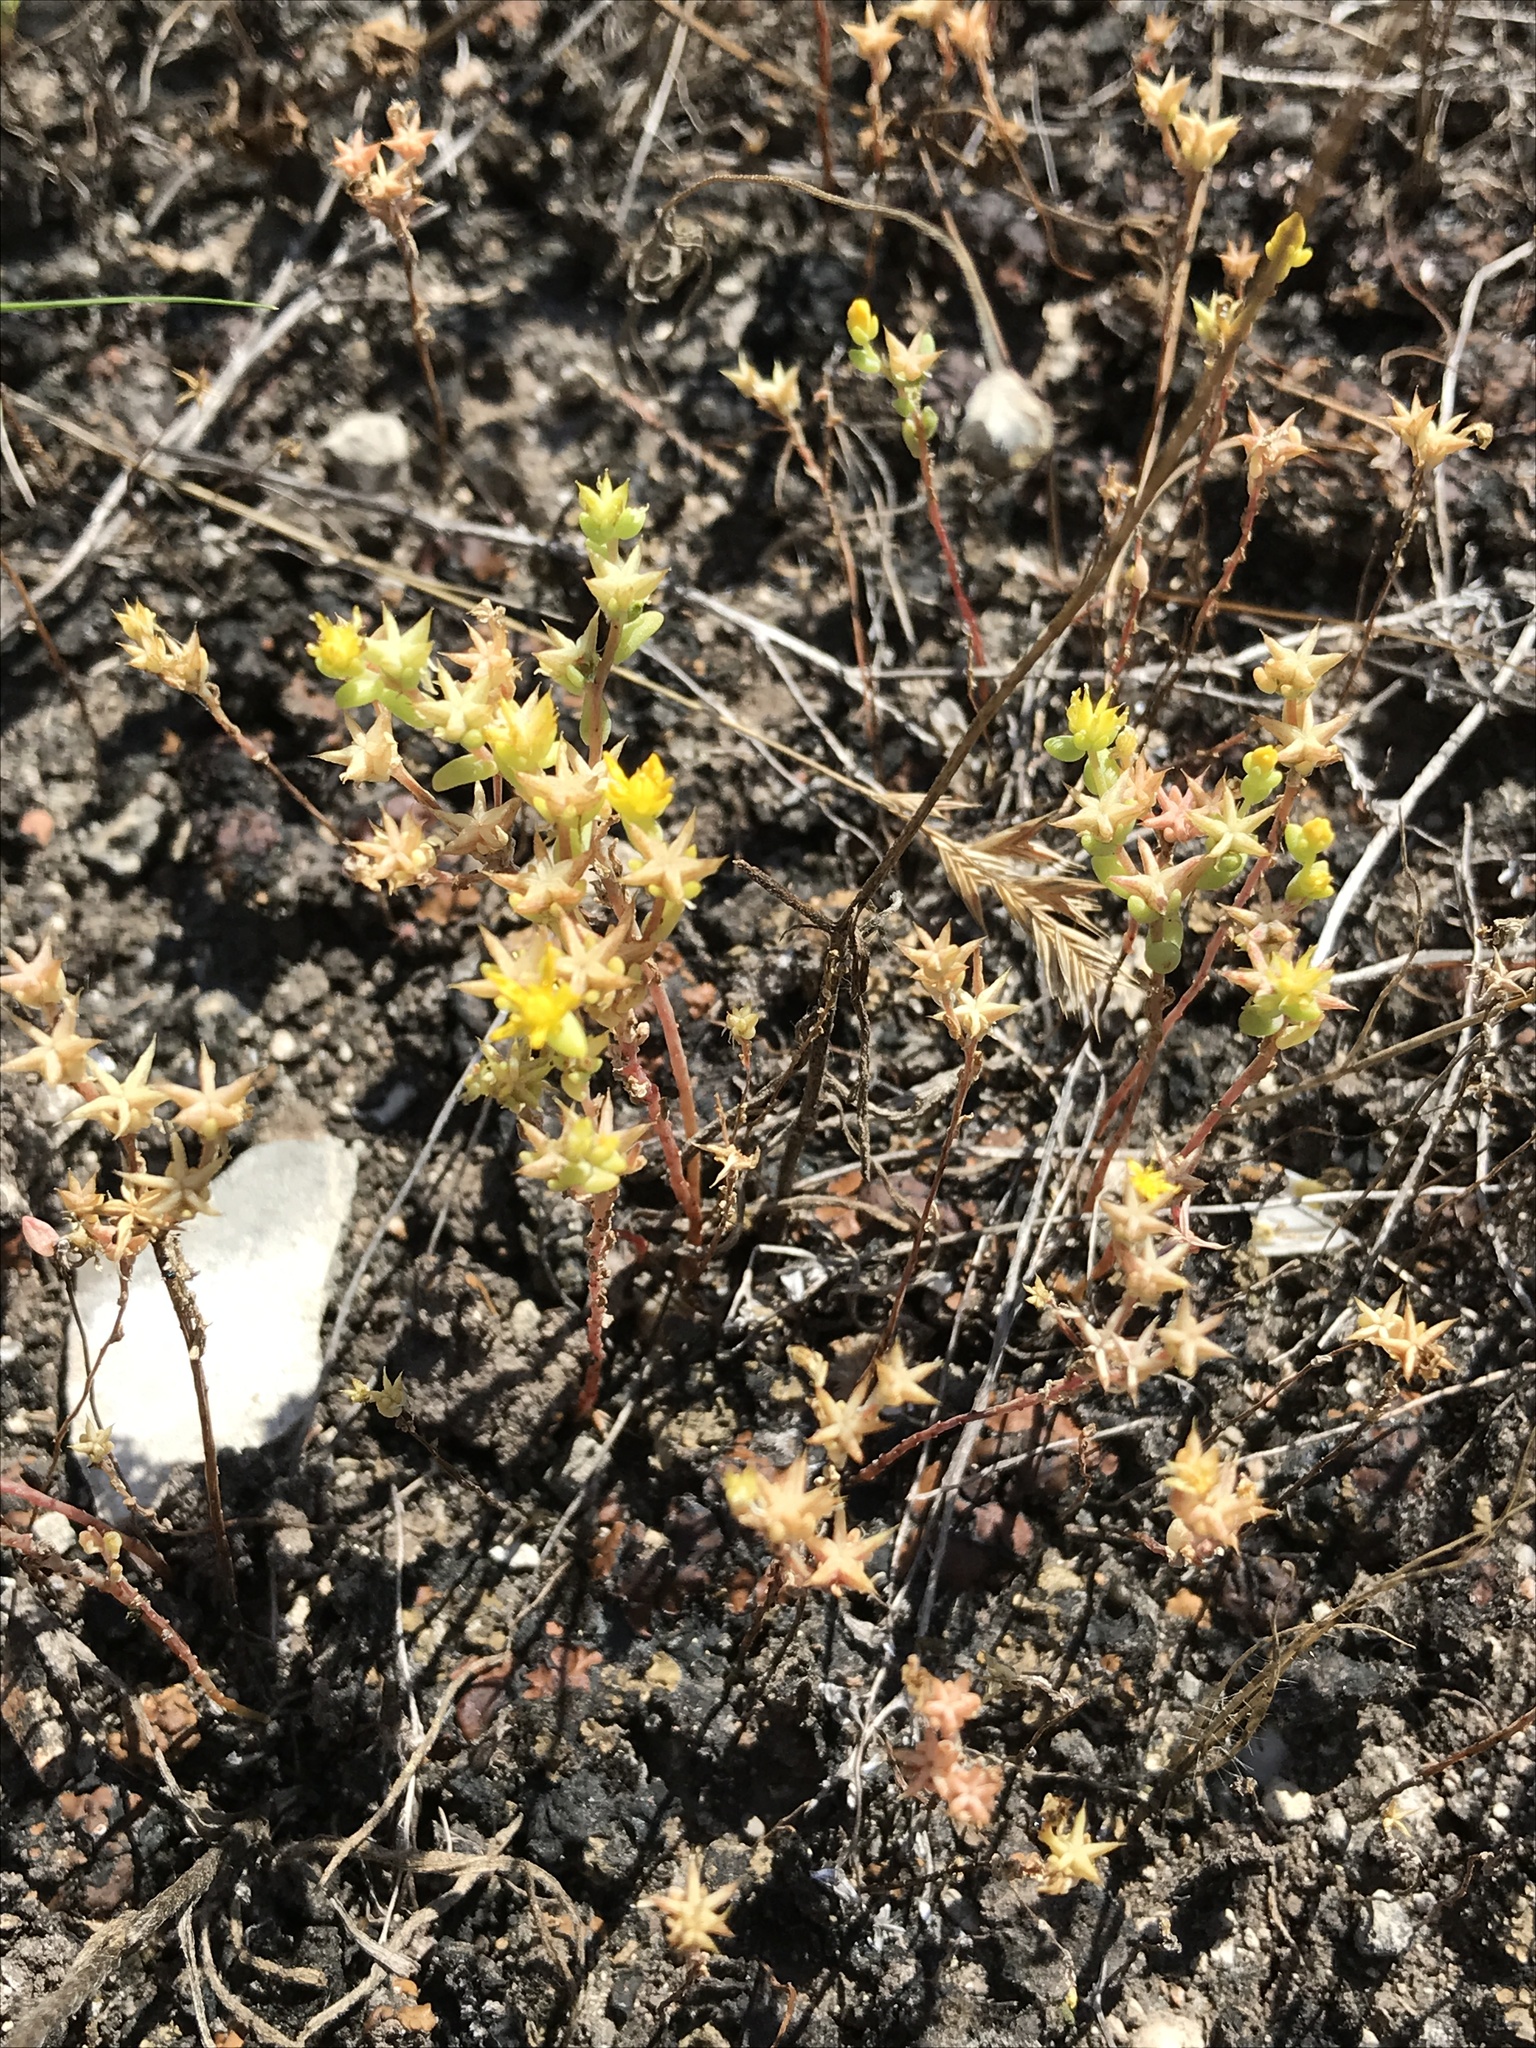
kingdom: Plantae
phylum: Tracheophyta
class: Magnoliopsida
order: Saxifragales
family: Crassulaceae
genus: Sedum
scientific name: Sedum nuttallii
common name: Yellow stonecrop
